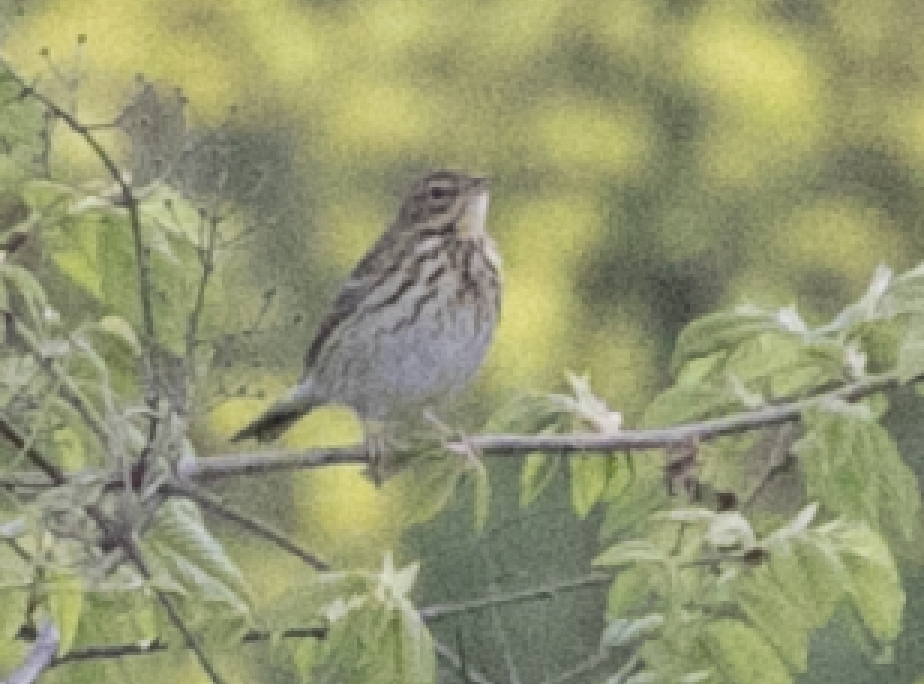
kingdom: Animalia
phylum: Chordata
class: Aves
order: Passeriformes
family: Motacillidae
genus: Anthus
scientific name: Anthus trivialis
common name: Tree pipit
